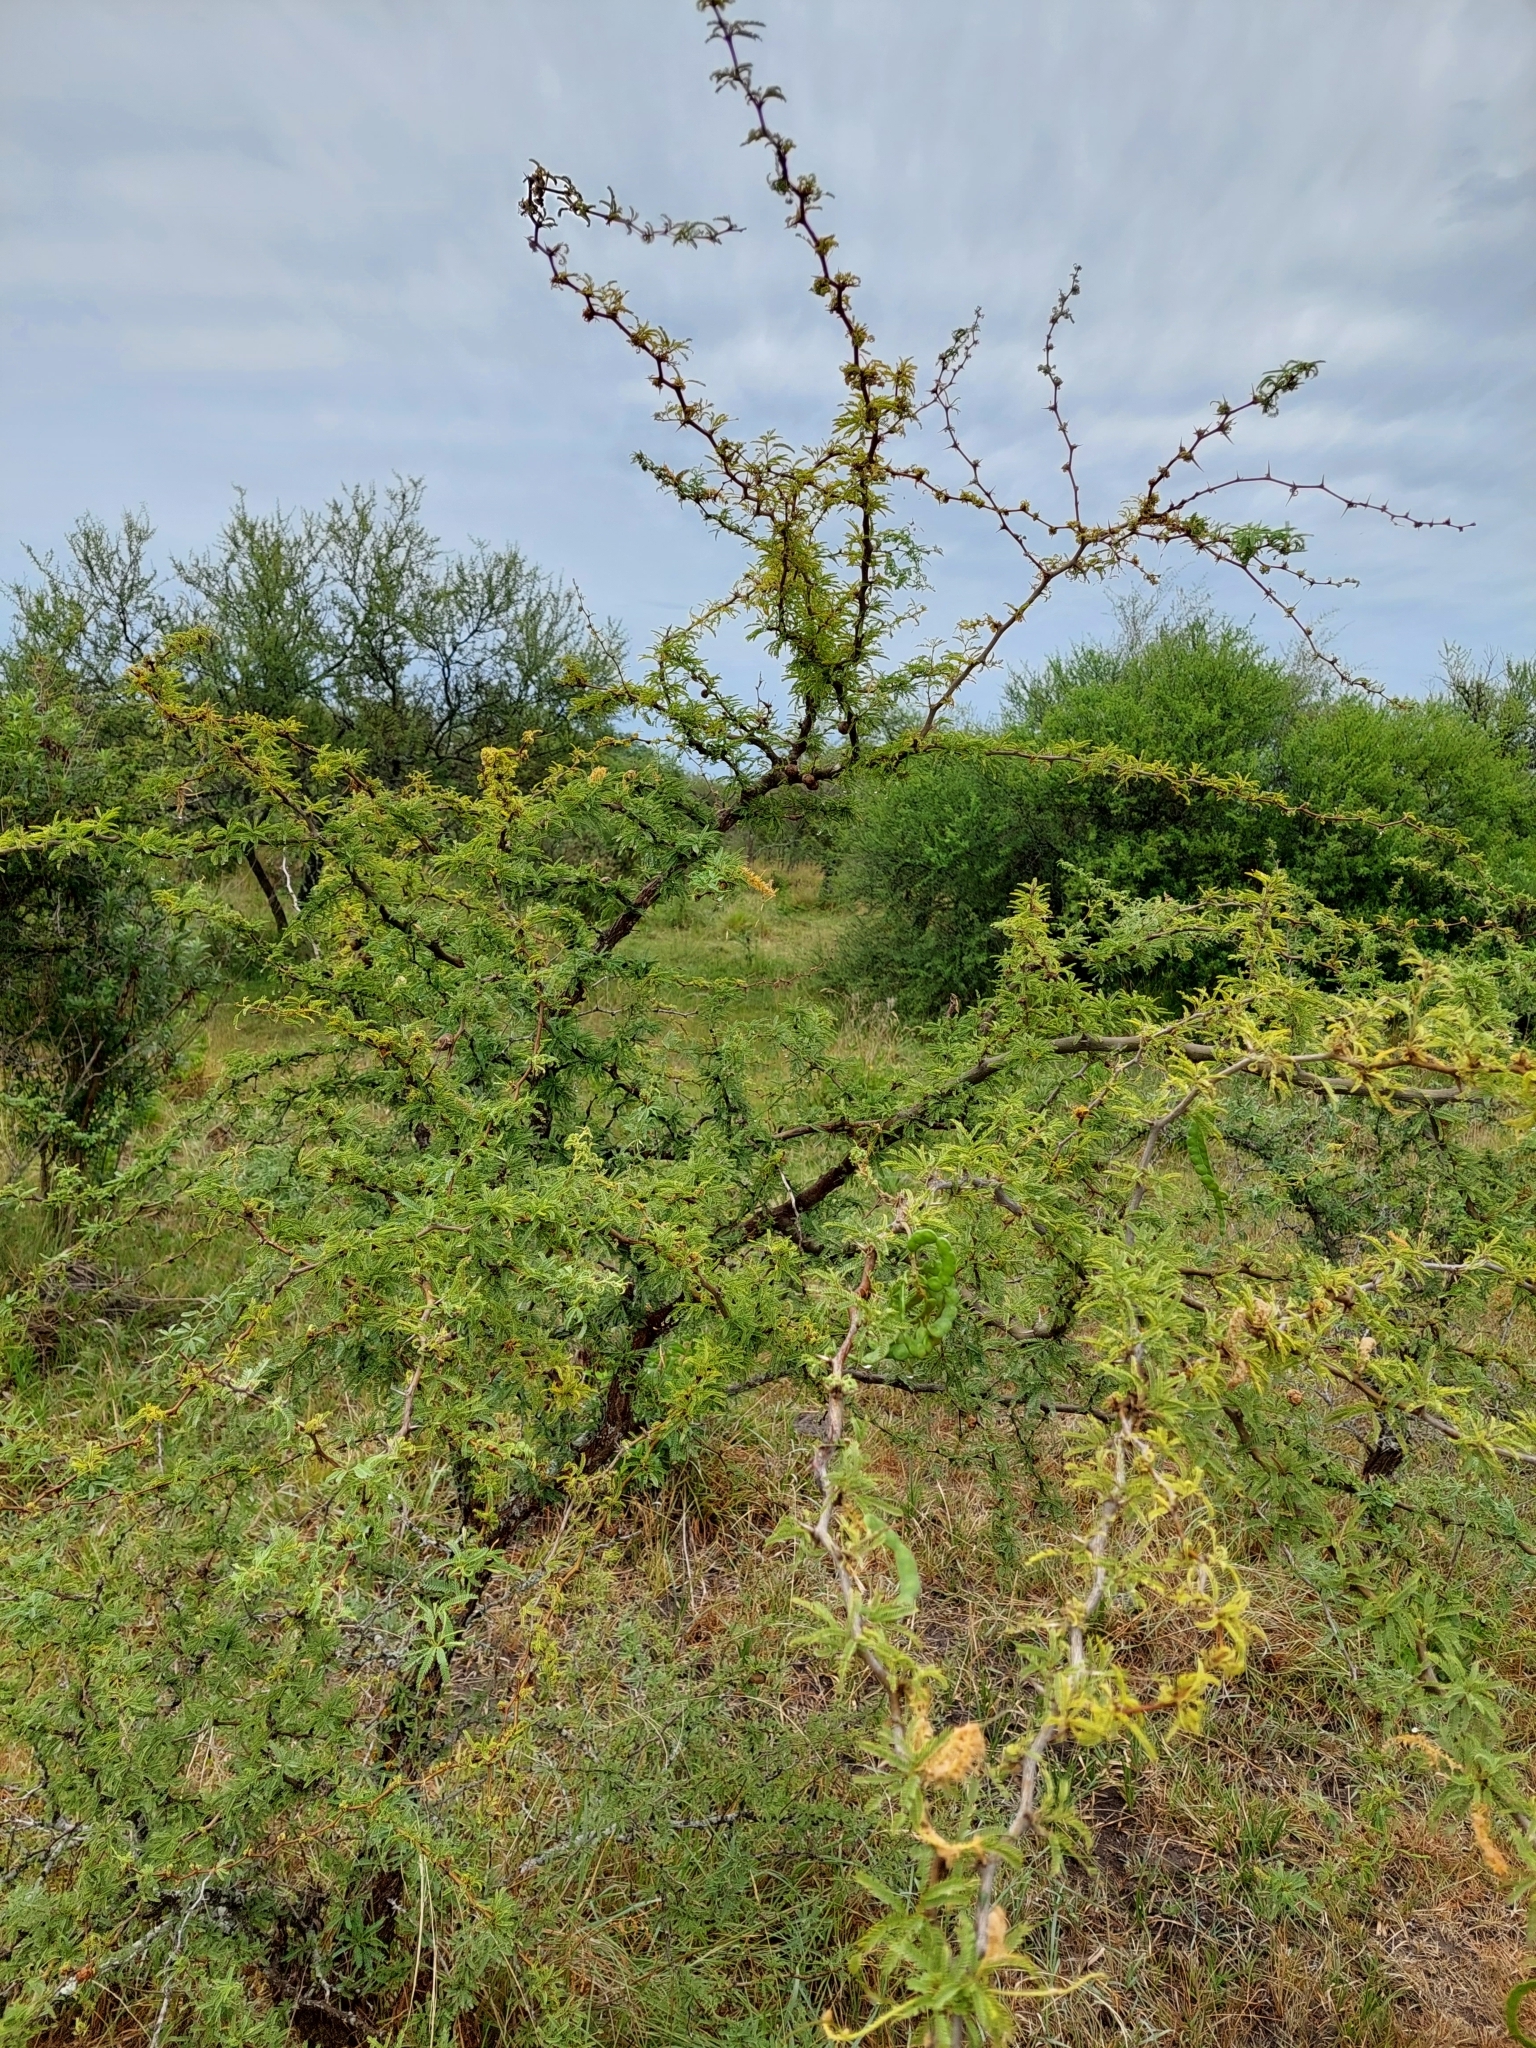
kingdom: Plantae
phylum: Tracheophyta
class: Magnoliopsida
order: Fabales
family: Fabaceae
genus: Prosopis
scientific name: Prosopis affinis
